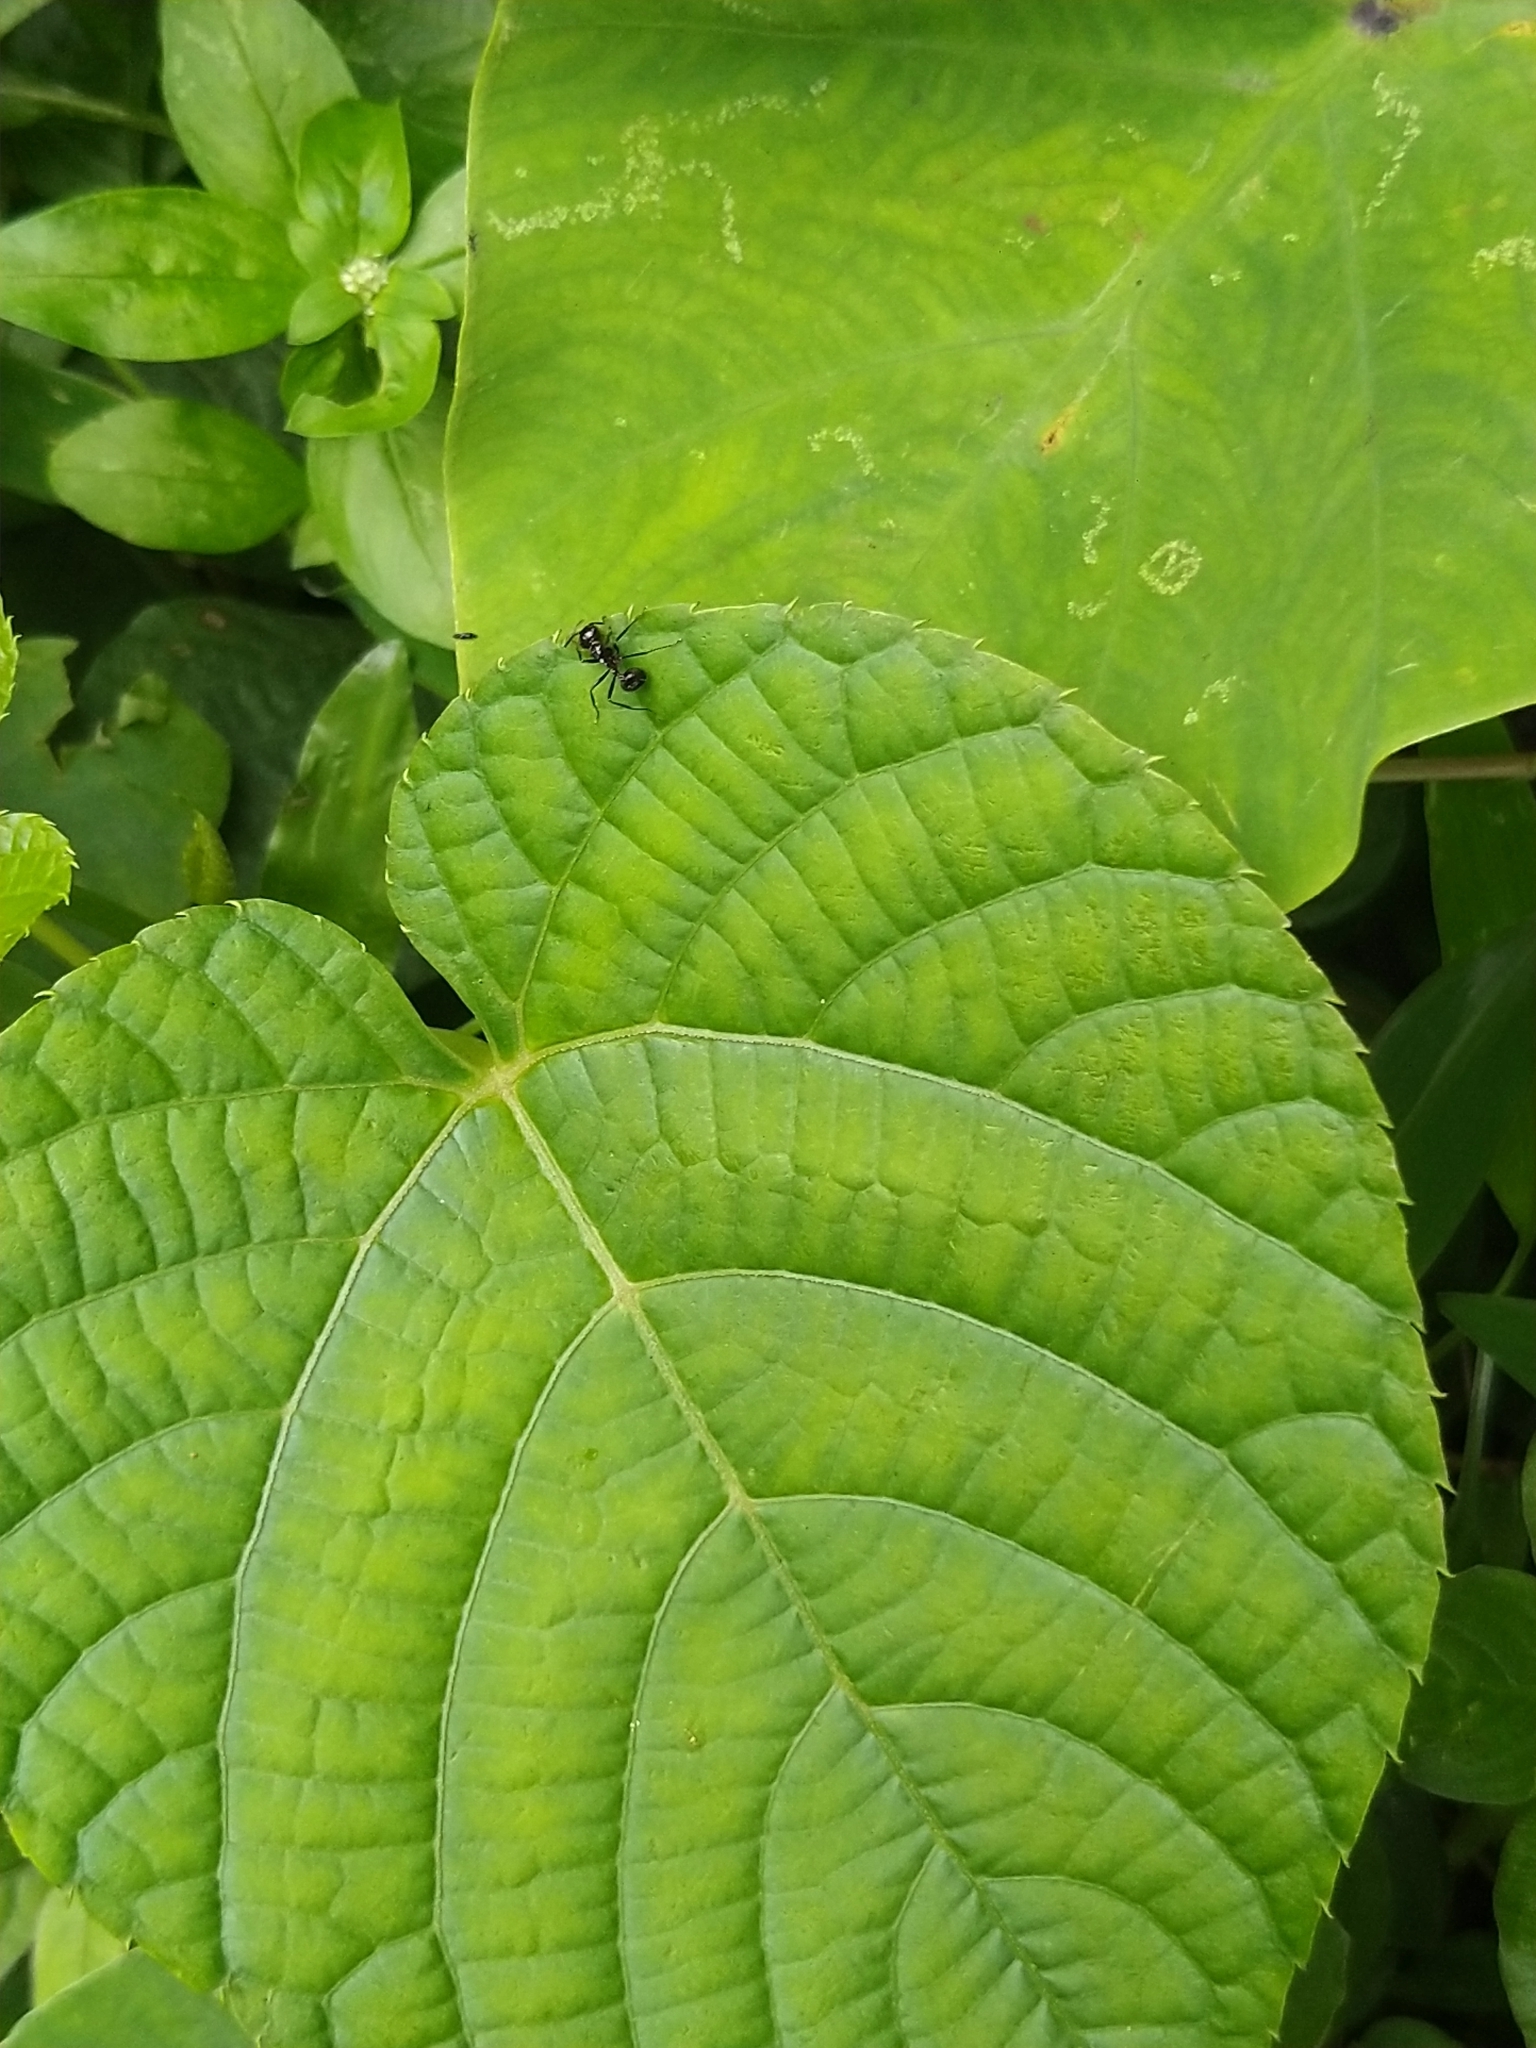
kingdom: Animalia
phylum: Arthropoda
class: Insecta
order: Hymenoptera
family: Formicidae
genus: Myrmicaria
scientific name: Myrmicaria brunnea
